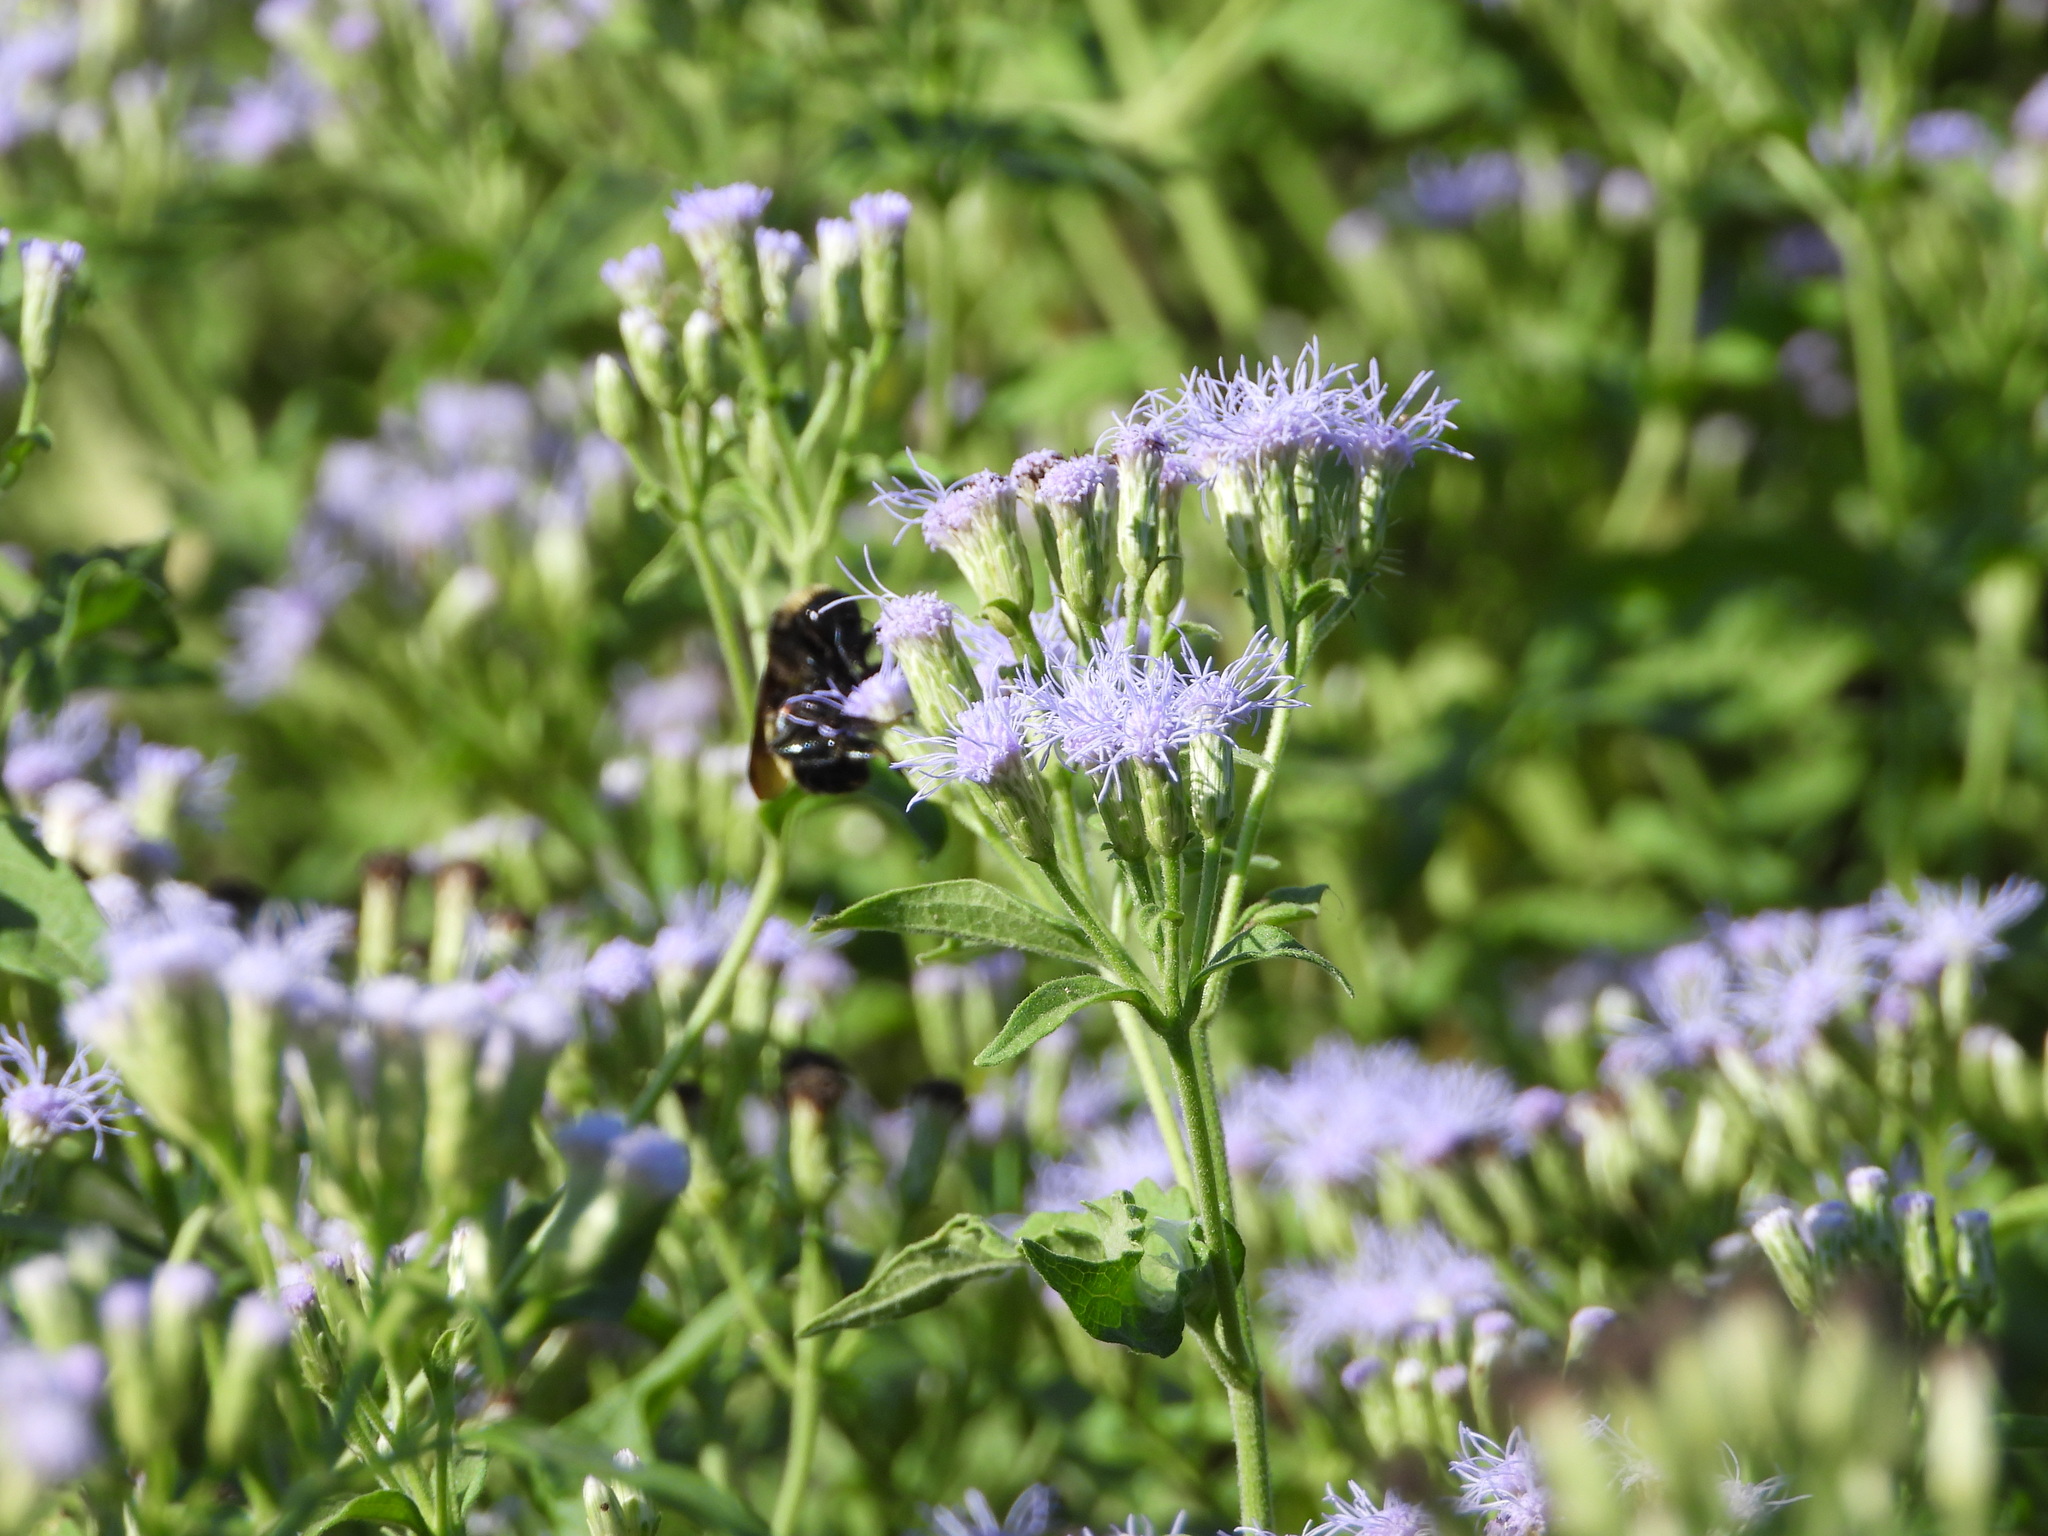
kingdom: Animalia
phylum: Arthropoda
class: Insecta
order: Hymenoptera
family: Apidae
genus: Bombus
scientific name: Bombus pensylvanicus
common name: Bumble bee
